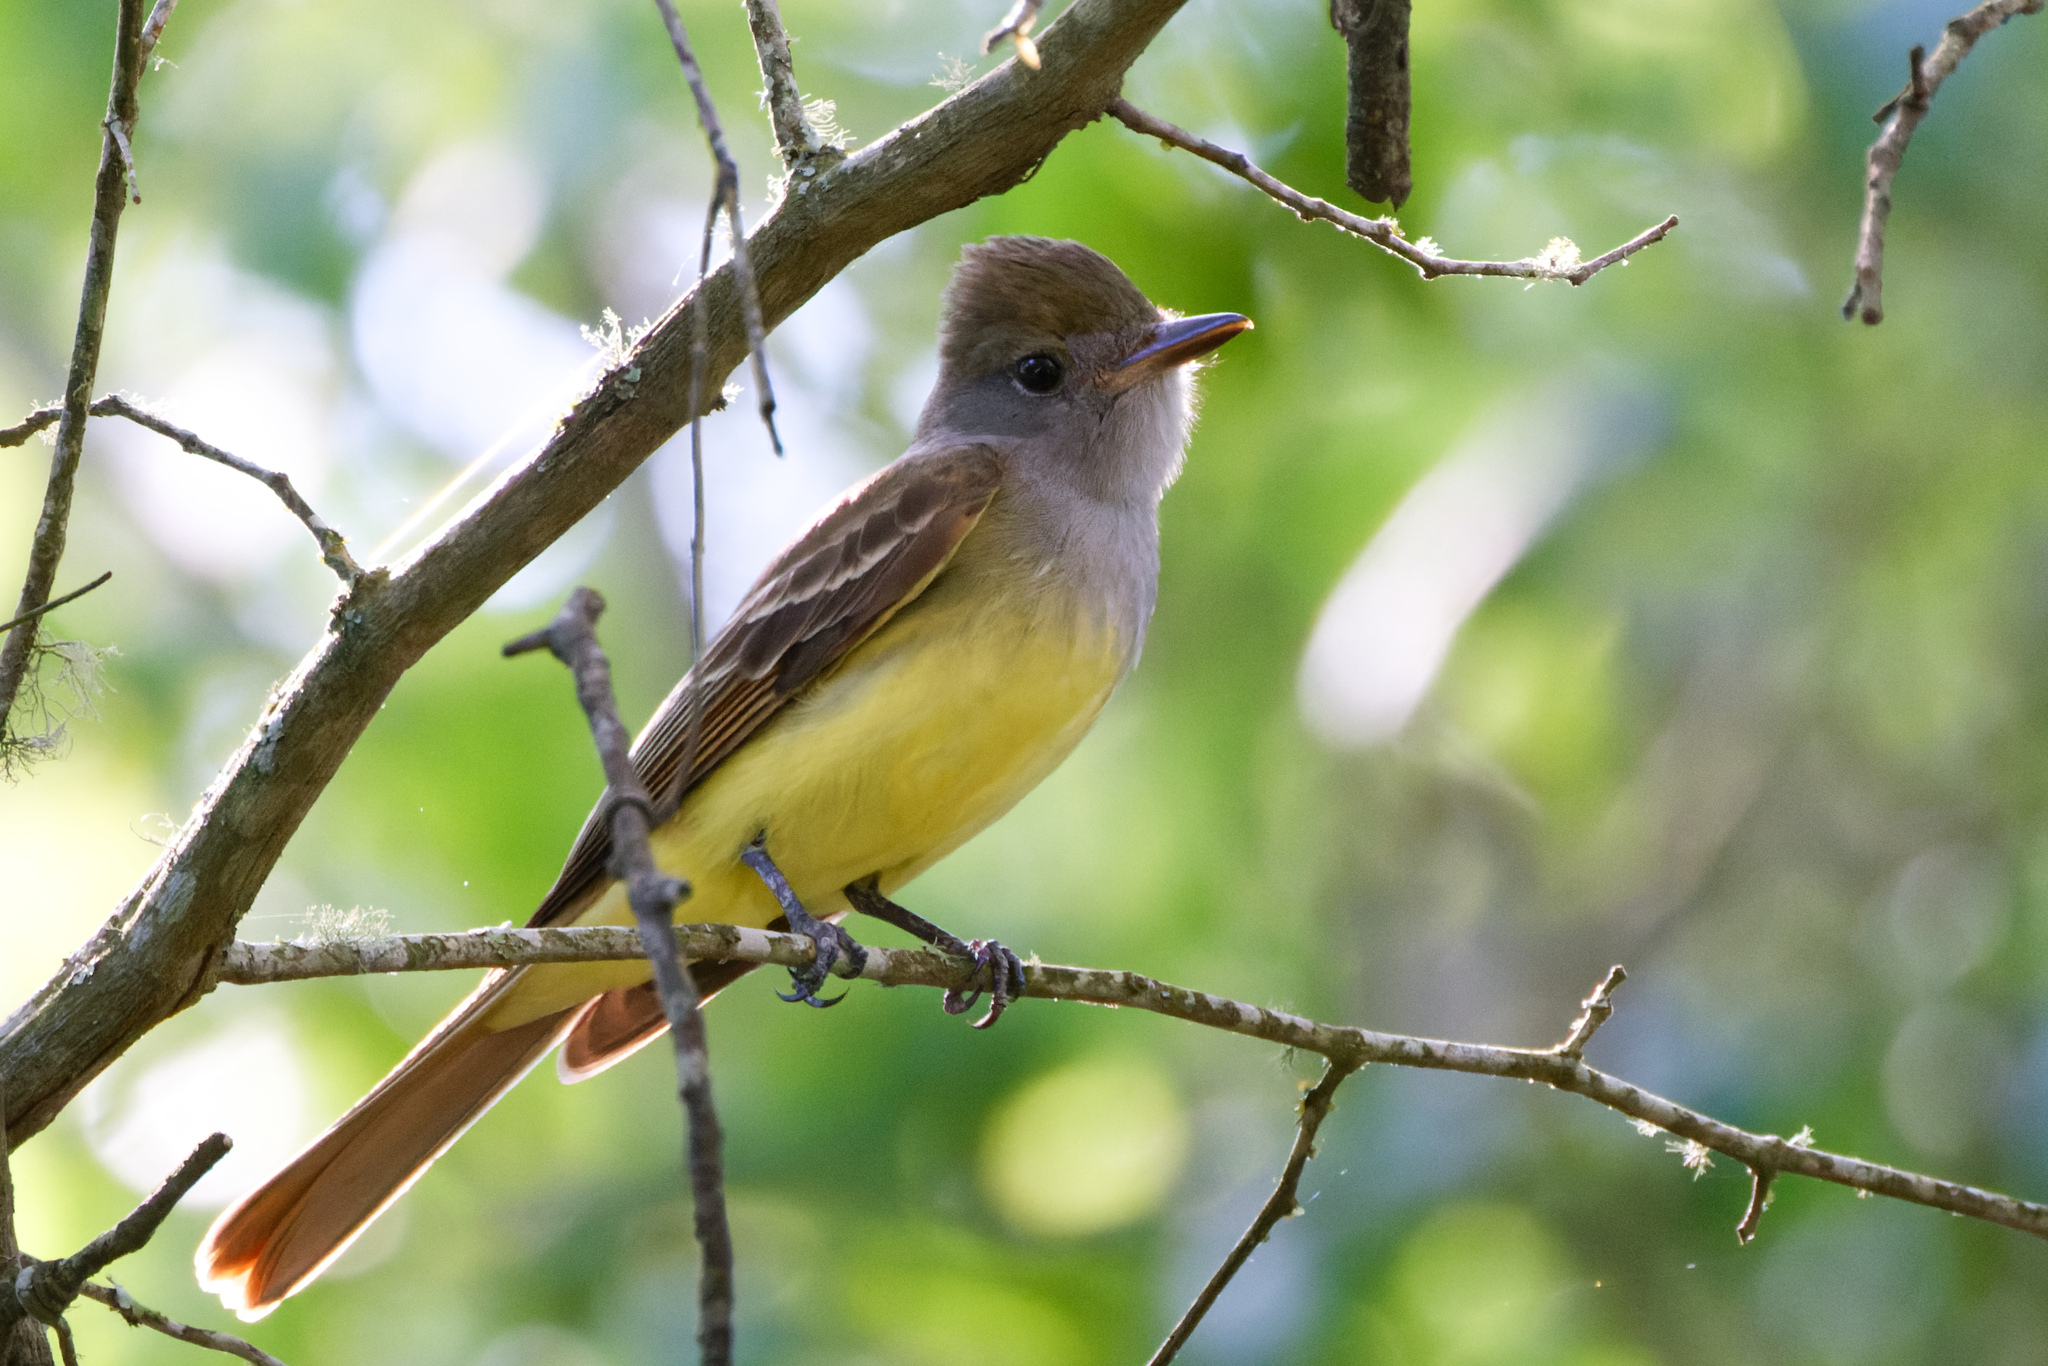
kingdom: Animalia
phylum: Chordata
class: Aves
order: Passeriformes
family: Tyrannidae
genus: Myiarchus
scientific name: Myiarchus crinitus
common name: Great crested flycatcher
